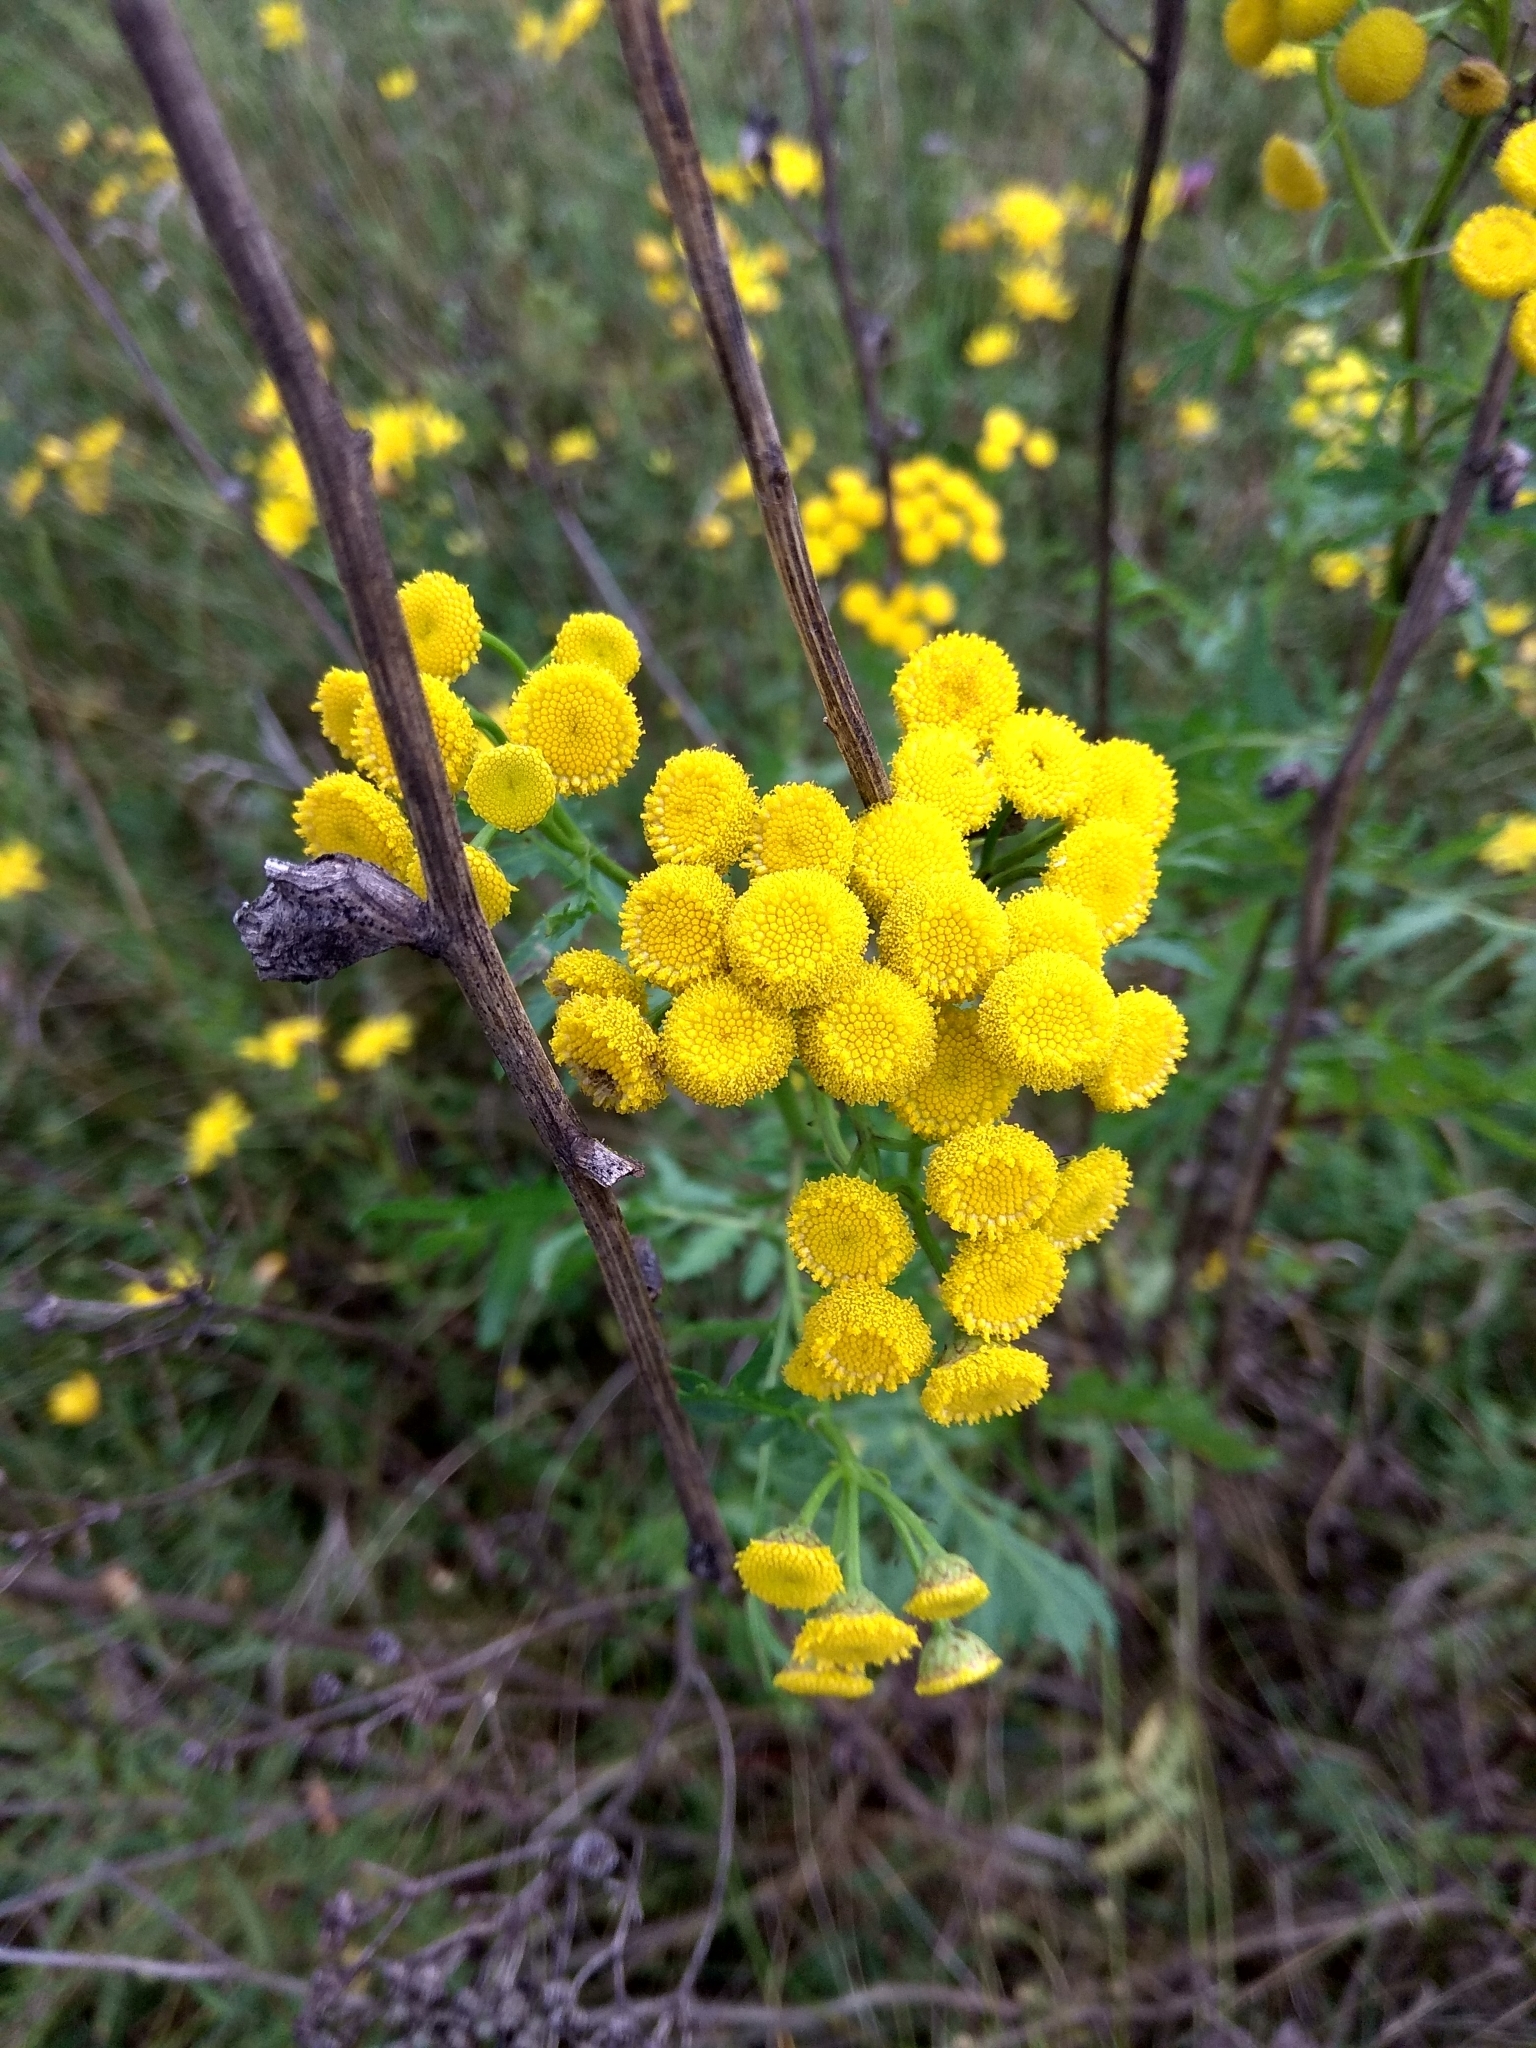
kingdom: Plantae
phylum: Tracheophyta
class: Magnoliopsida
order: Asterales
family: Asteraceae
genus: Tanacetum
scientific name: Tanacetum vulgare
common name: Common tansy
